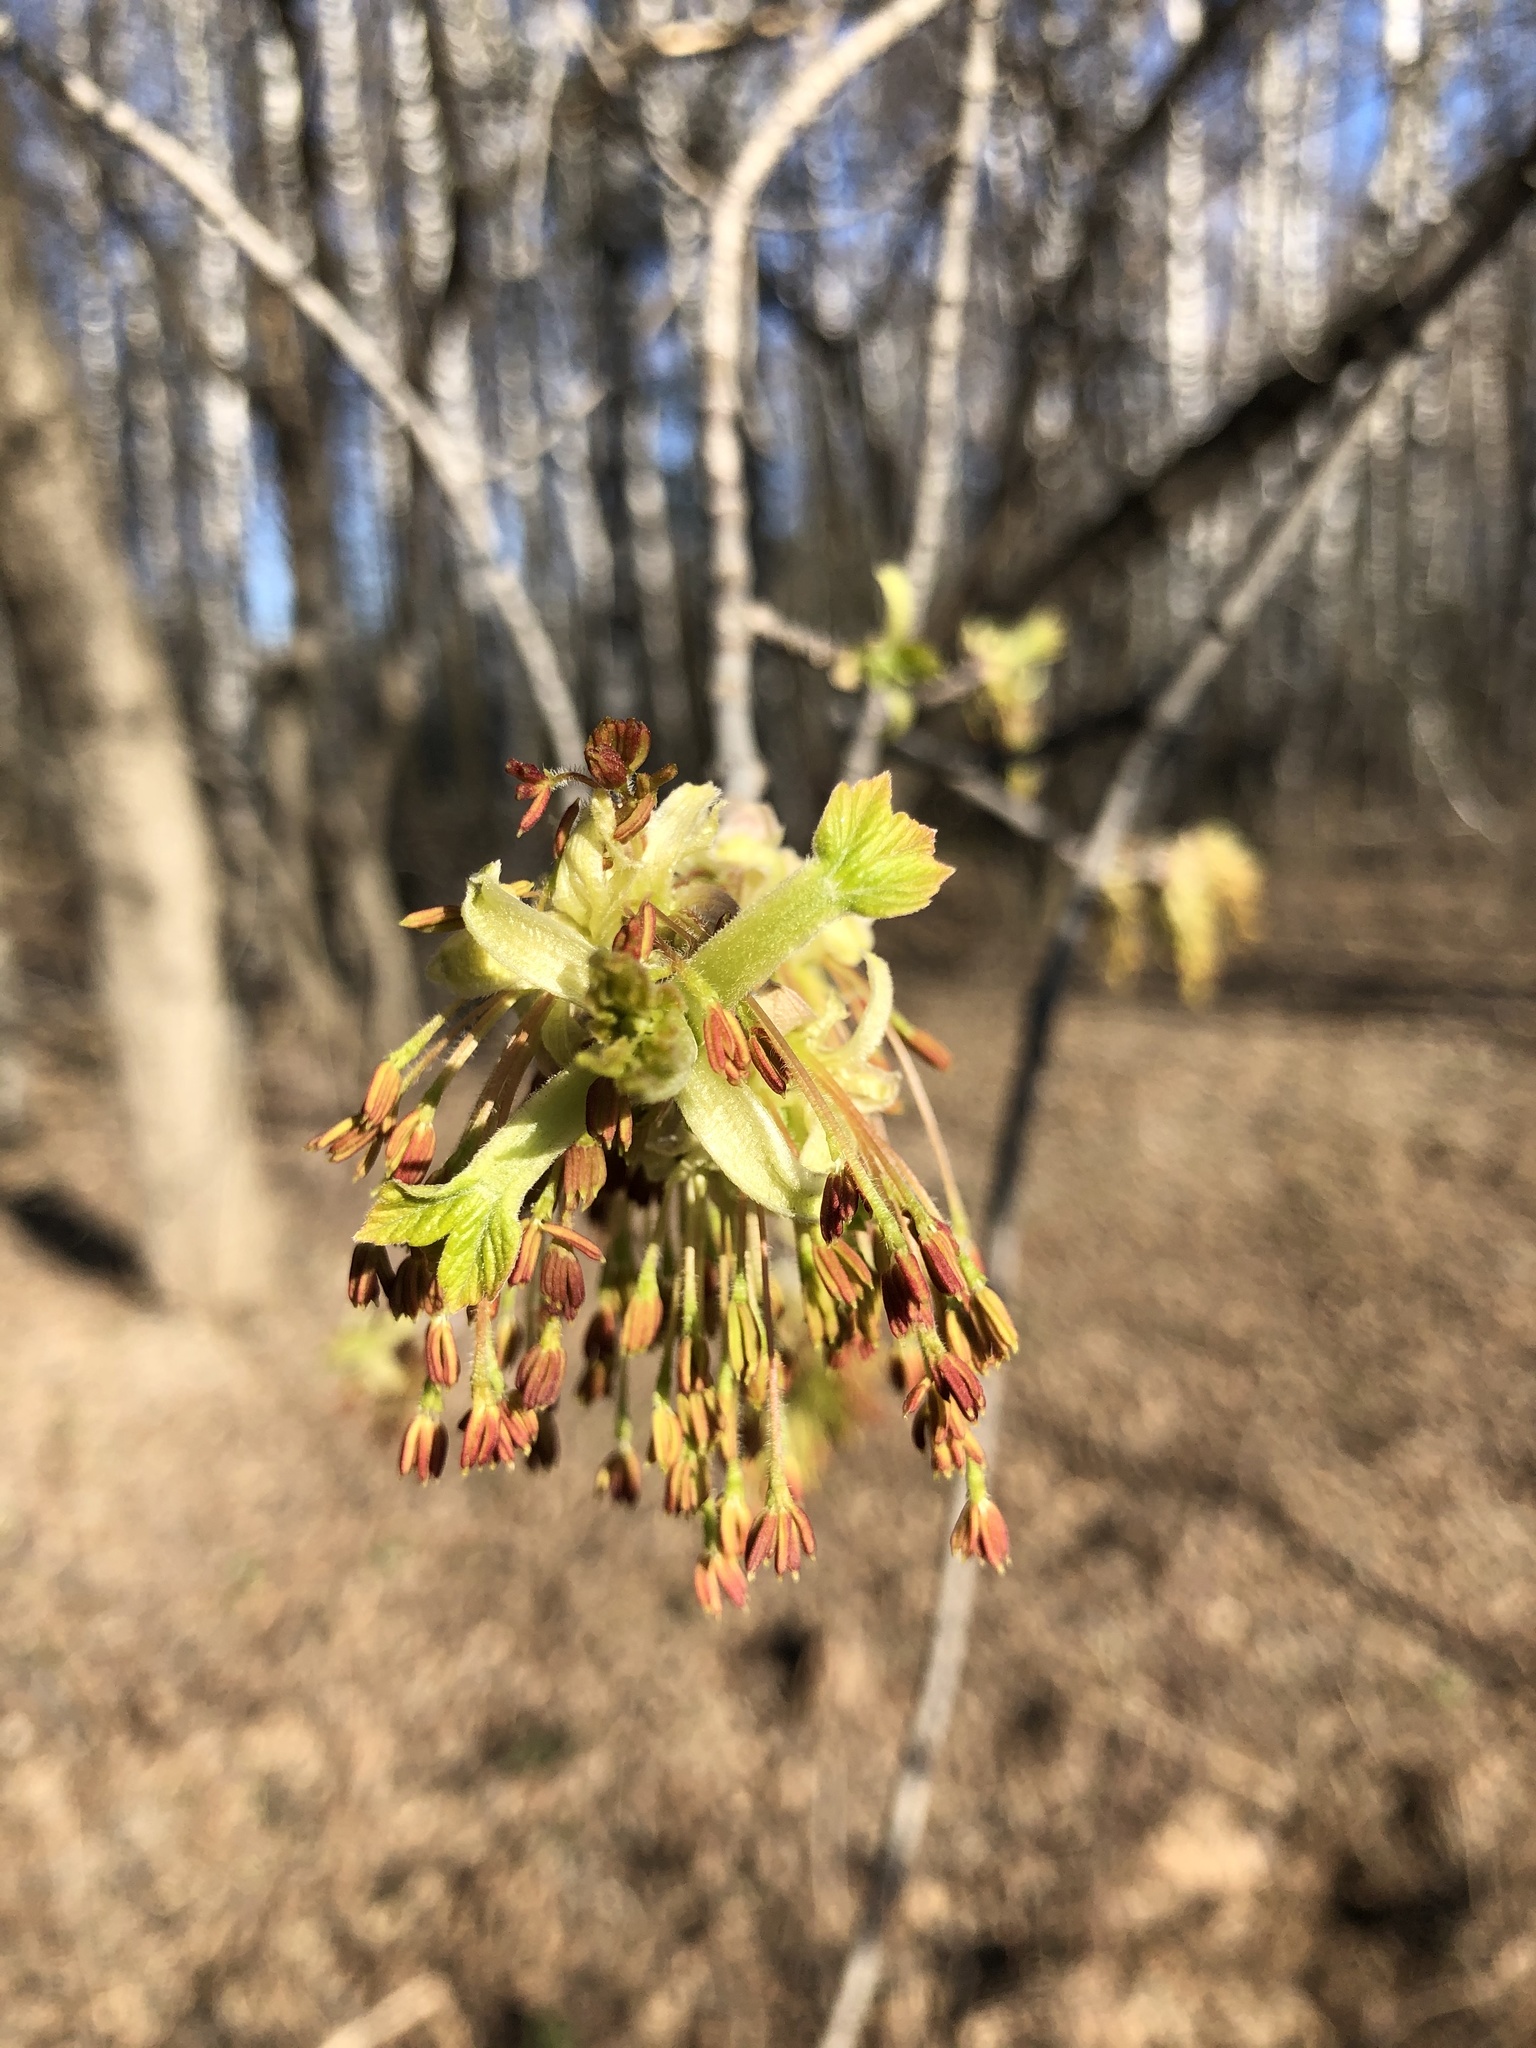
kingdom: Plantae
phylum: Tracheophyta
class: Magnoliopsida
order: Sapindales
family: Sapindaceae
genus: Acer
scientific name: Acer negundo
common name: Ashleaf maple
